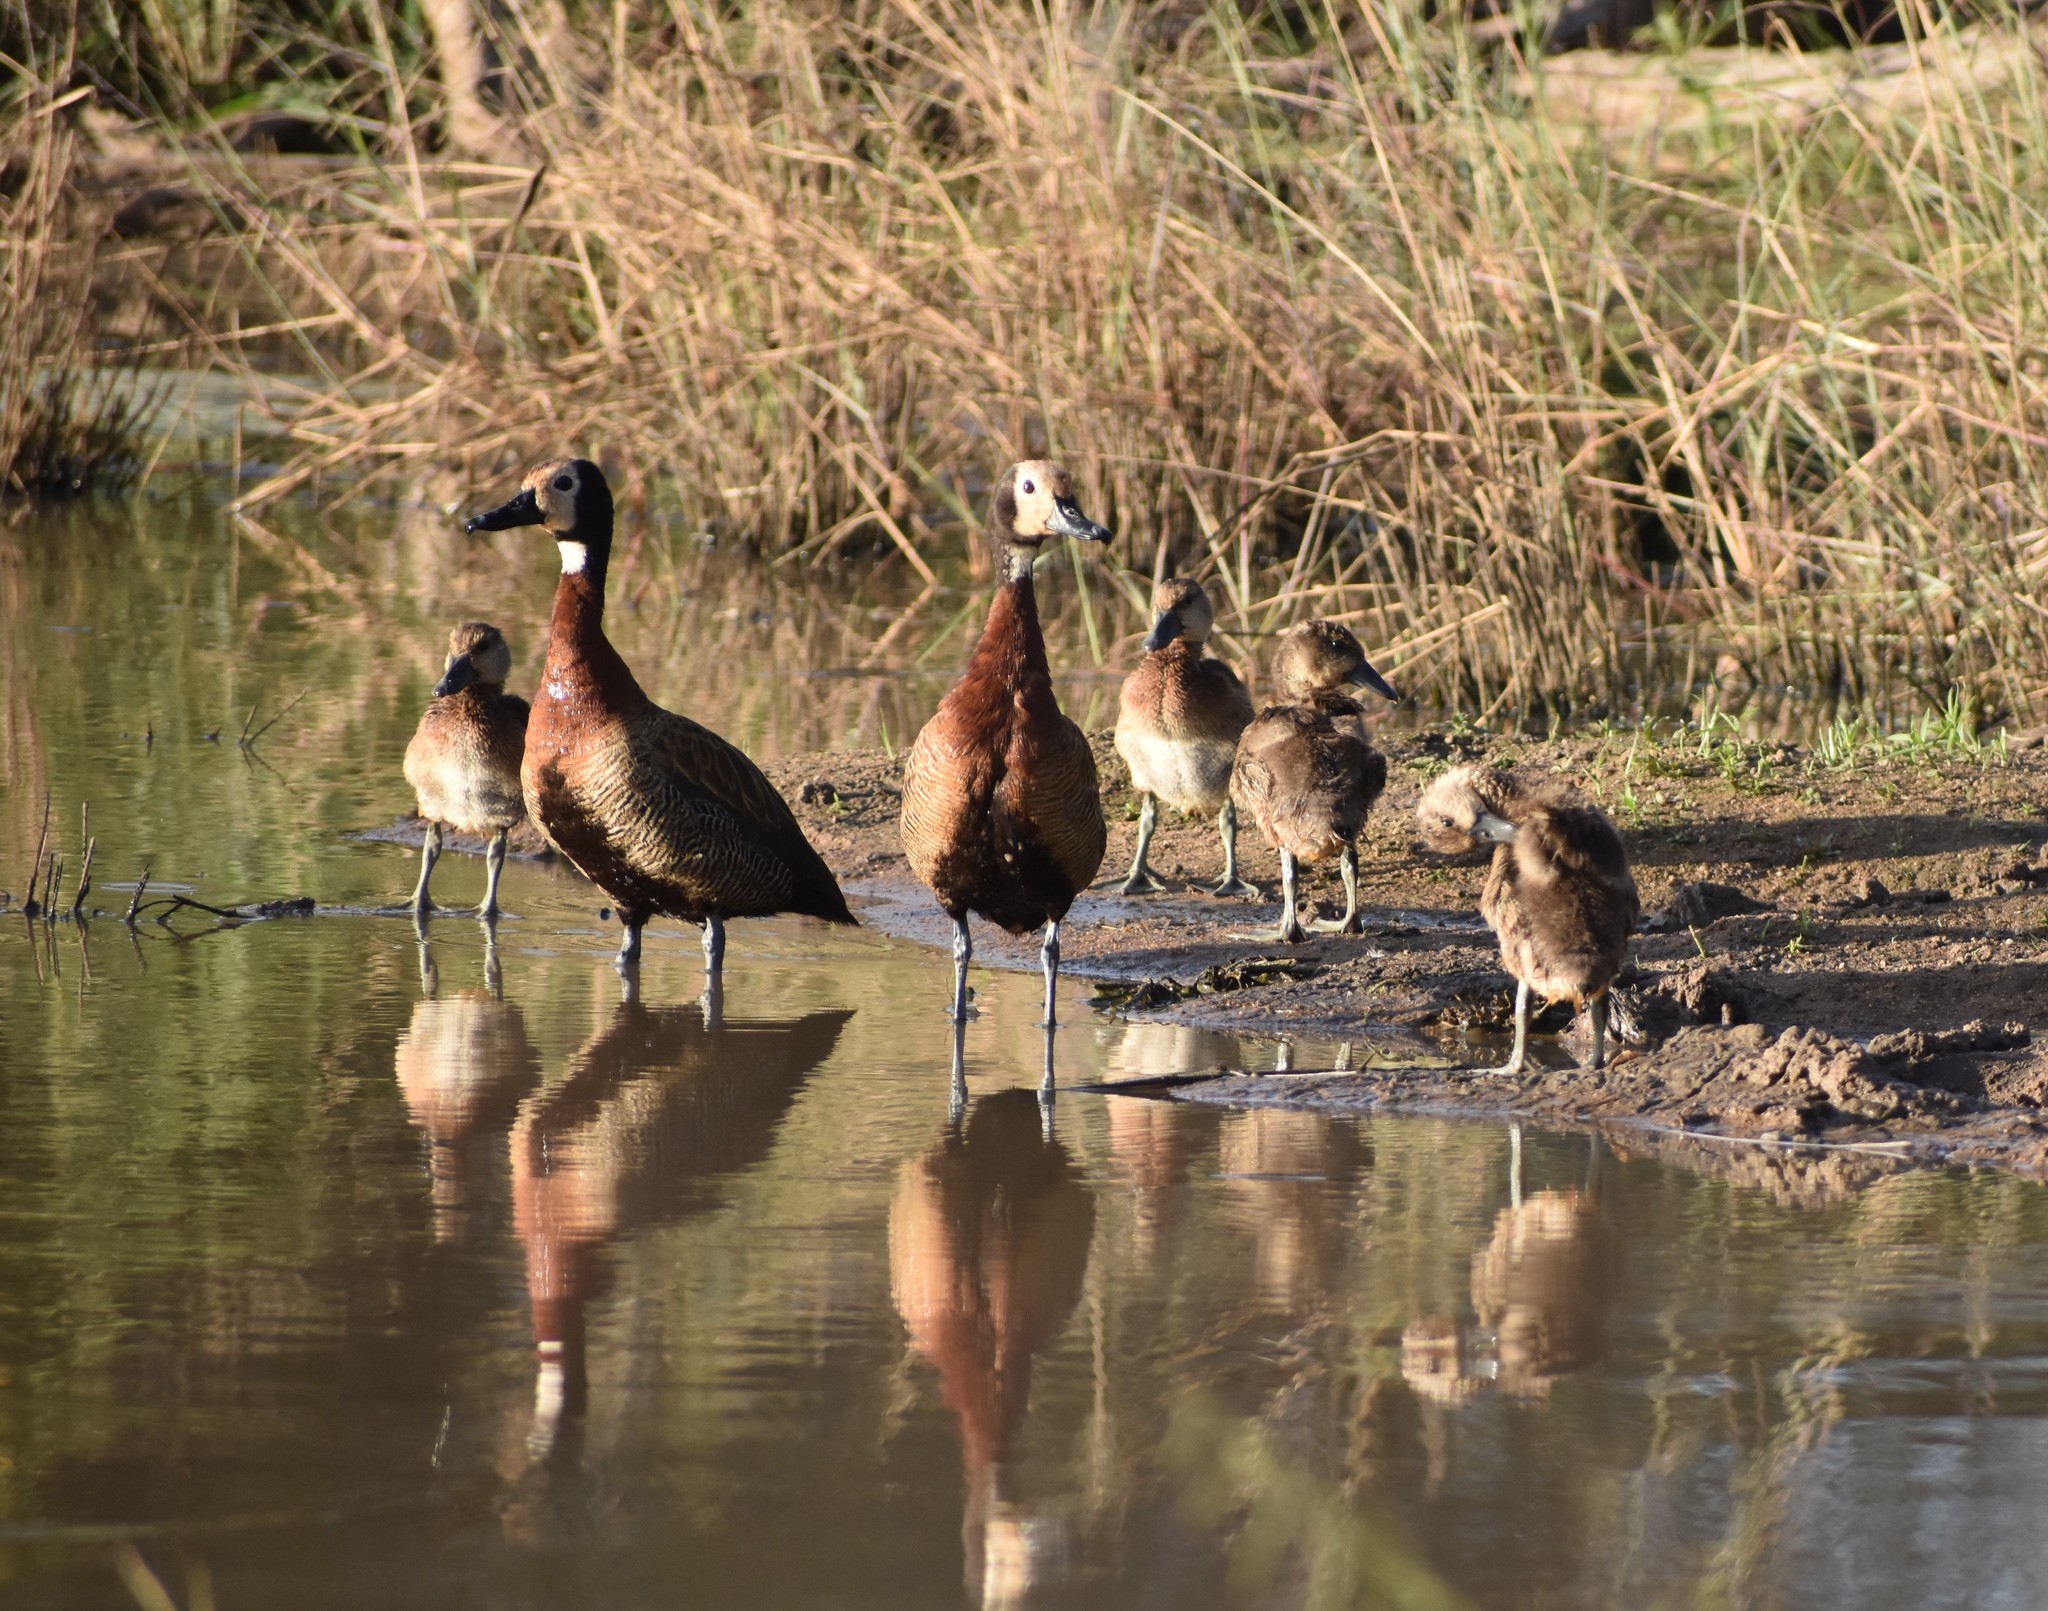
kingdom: Animalia
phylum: Chordata
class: Aves
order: Anseriformes
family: Anatidae
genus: Dendrocygna
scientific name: Dendrocygna viduata
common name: White-faced whistling duck
